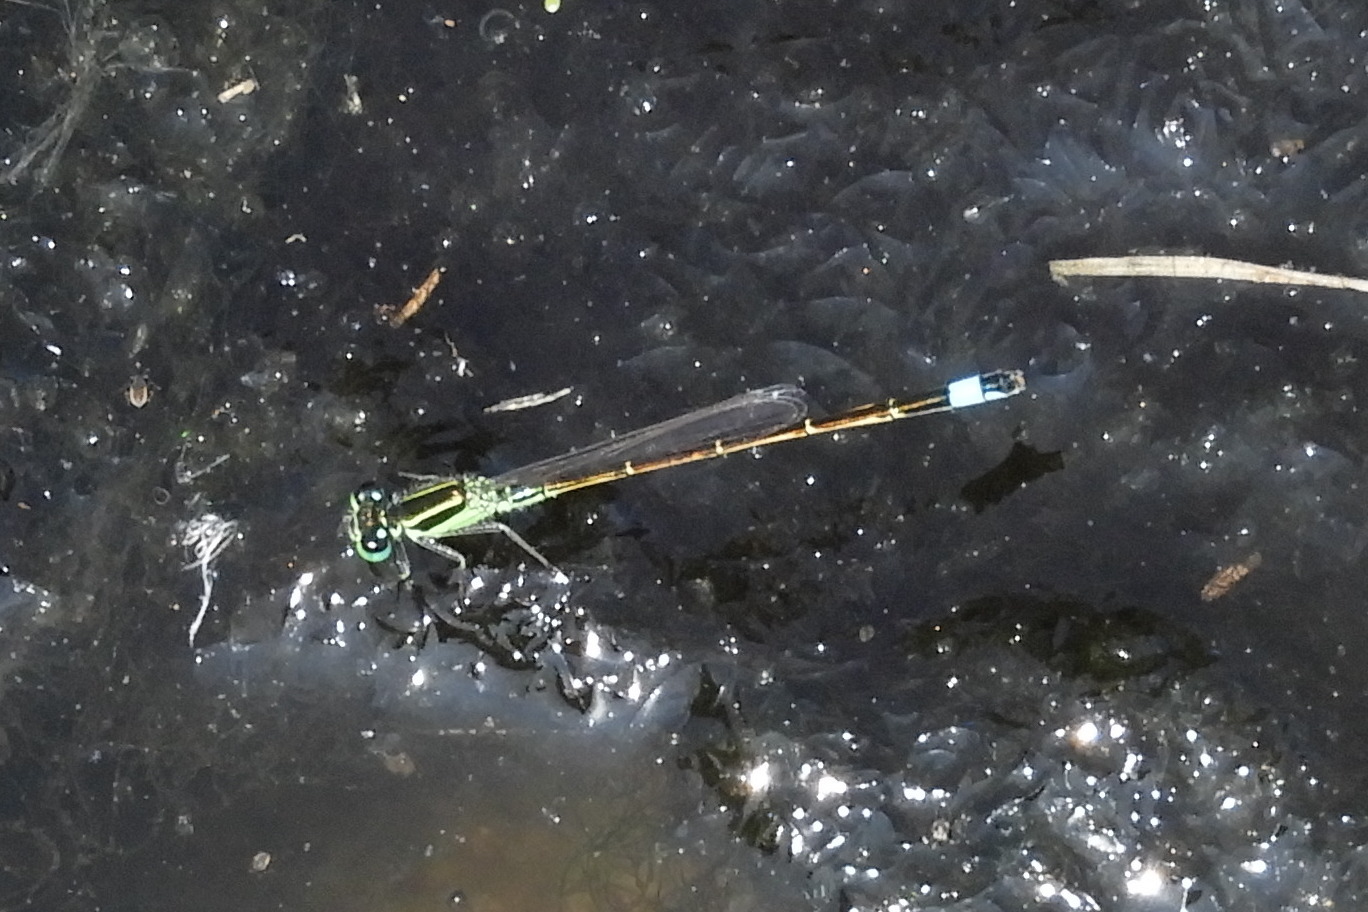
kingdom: Animalia
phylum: Arthropoda
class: Insecta
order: Odonata
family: Coenagrionidae
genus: Ischnura
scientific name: Ischnura ramburii
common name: Rambur's forktail
